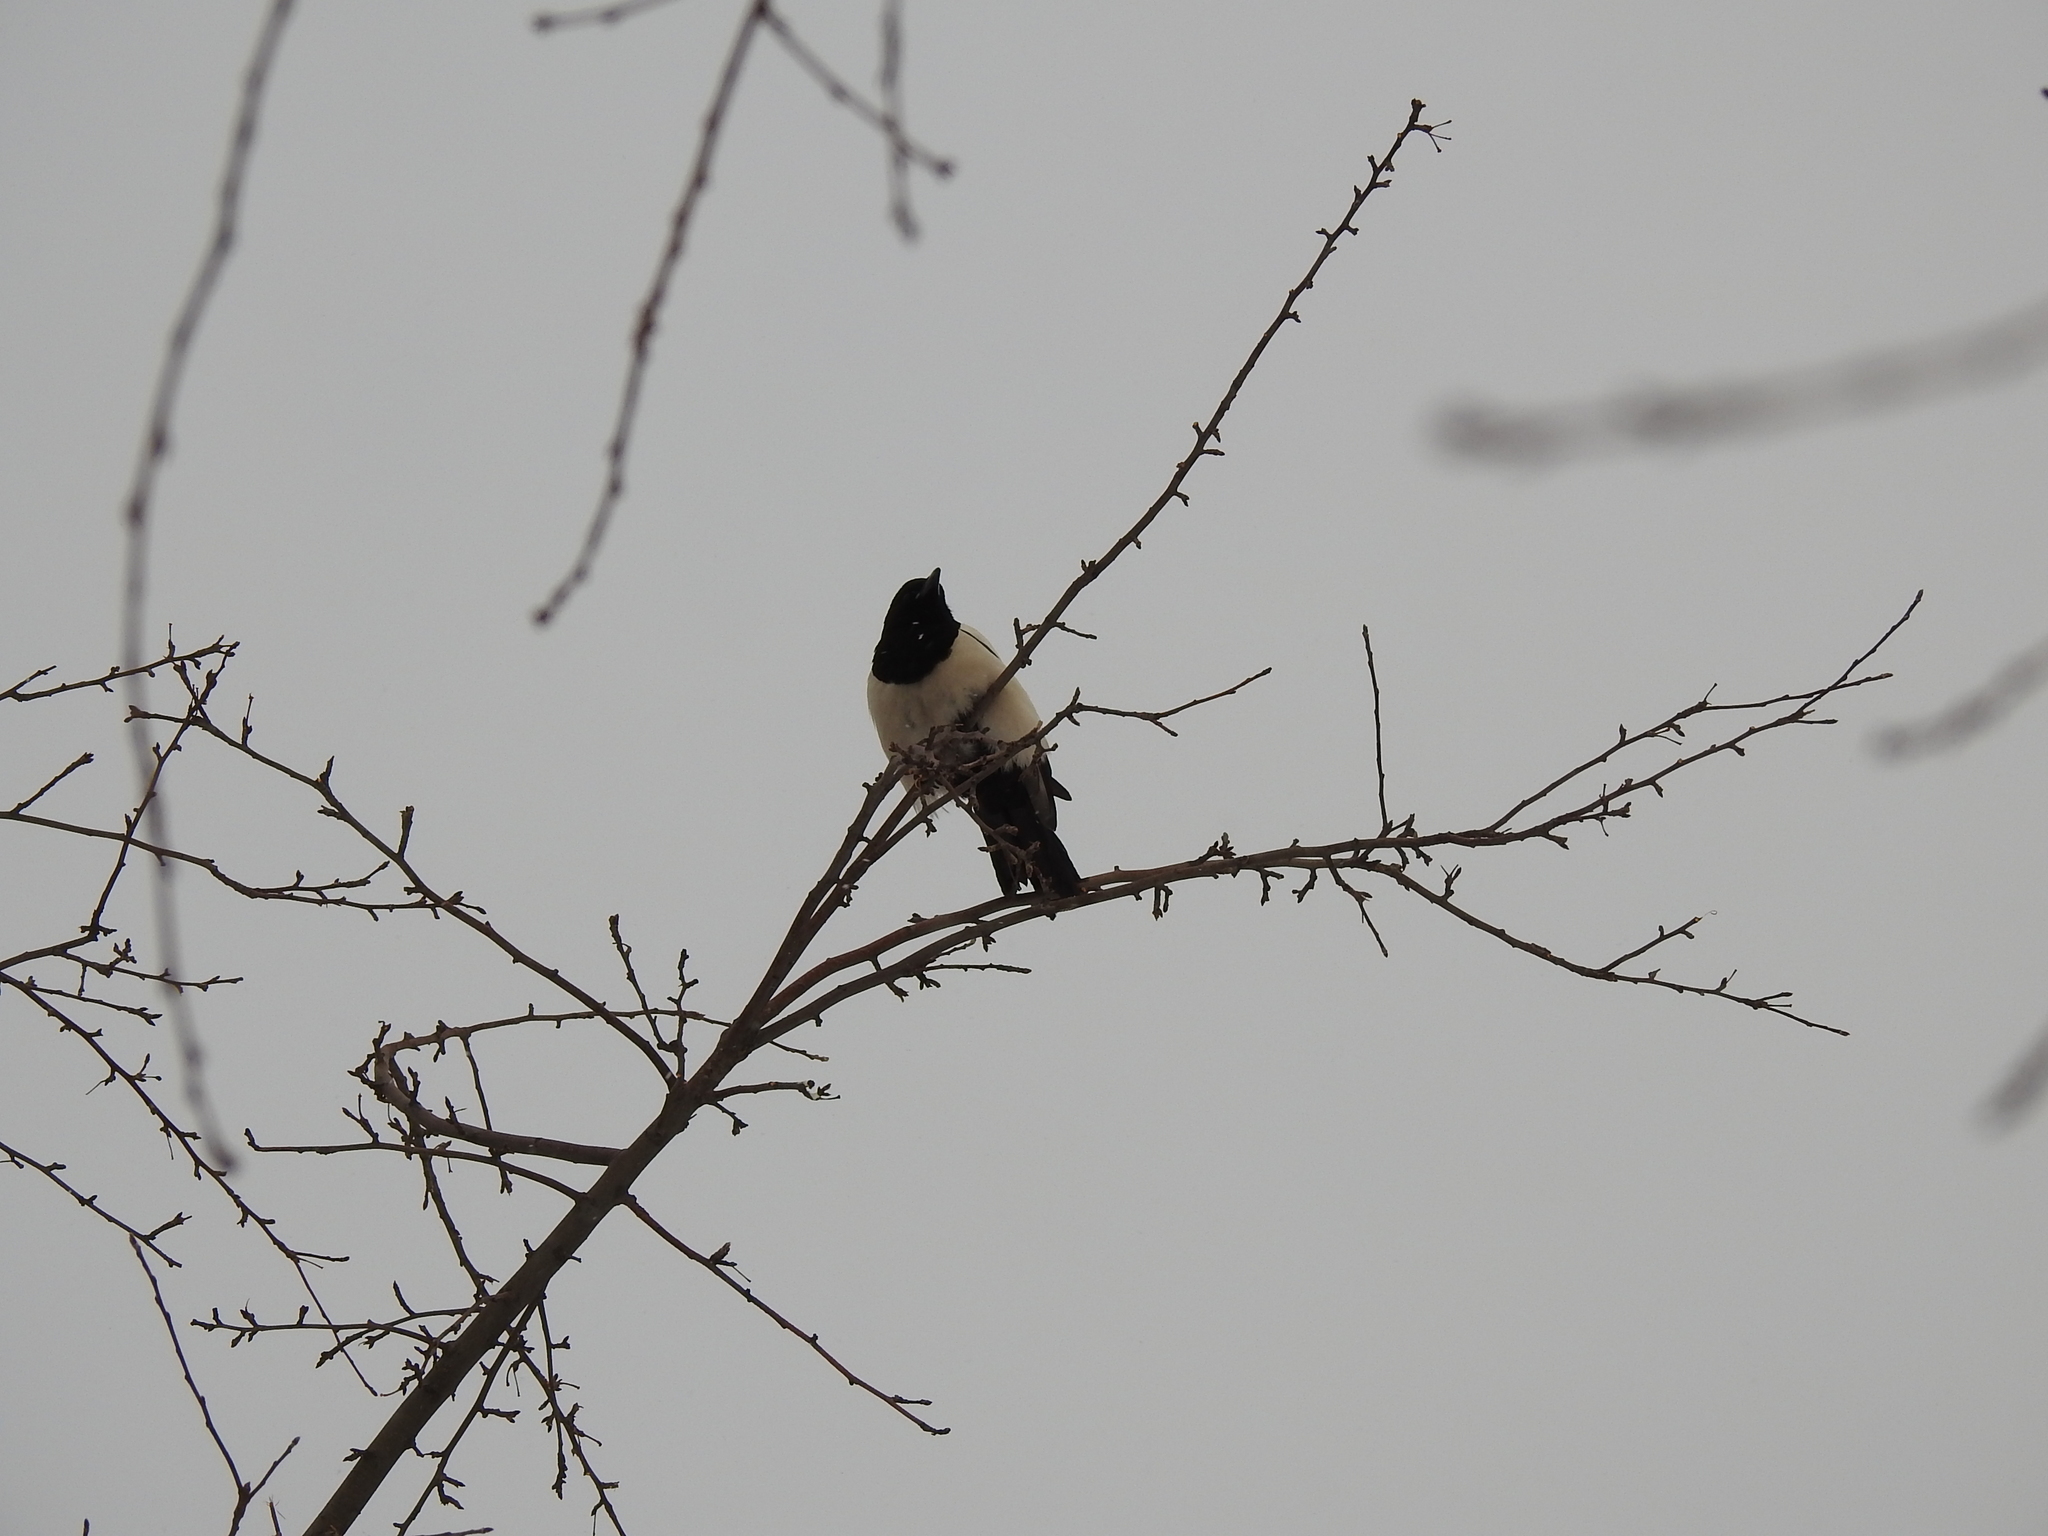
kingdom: Animalia
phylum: Chordata
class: Aves
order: Passeriformes
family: Corvidae
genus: Pica
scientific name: Pica pica
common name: Eurasian magpie
